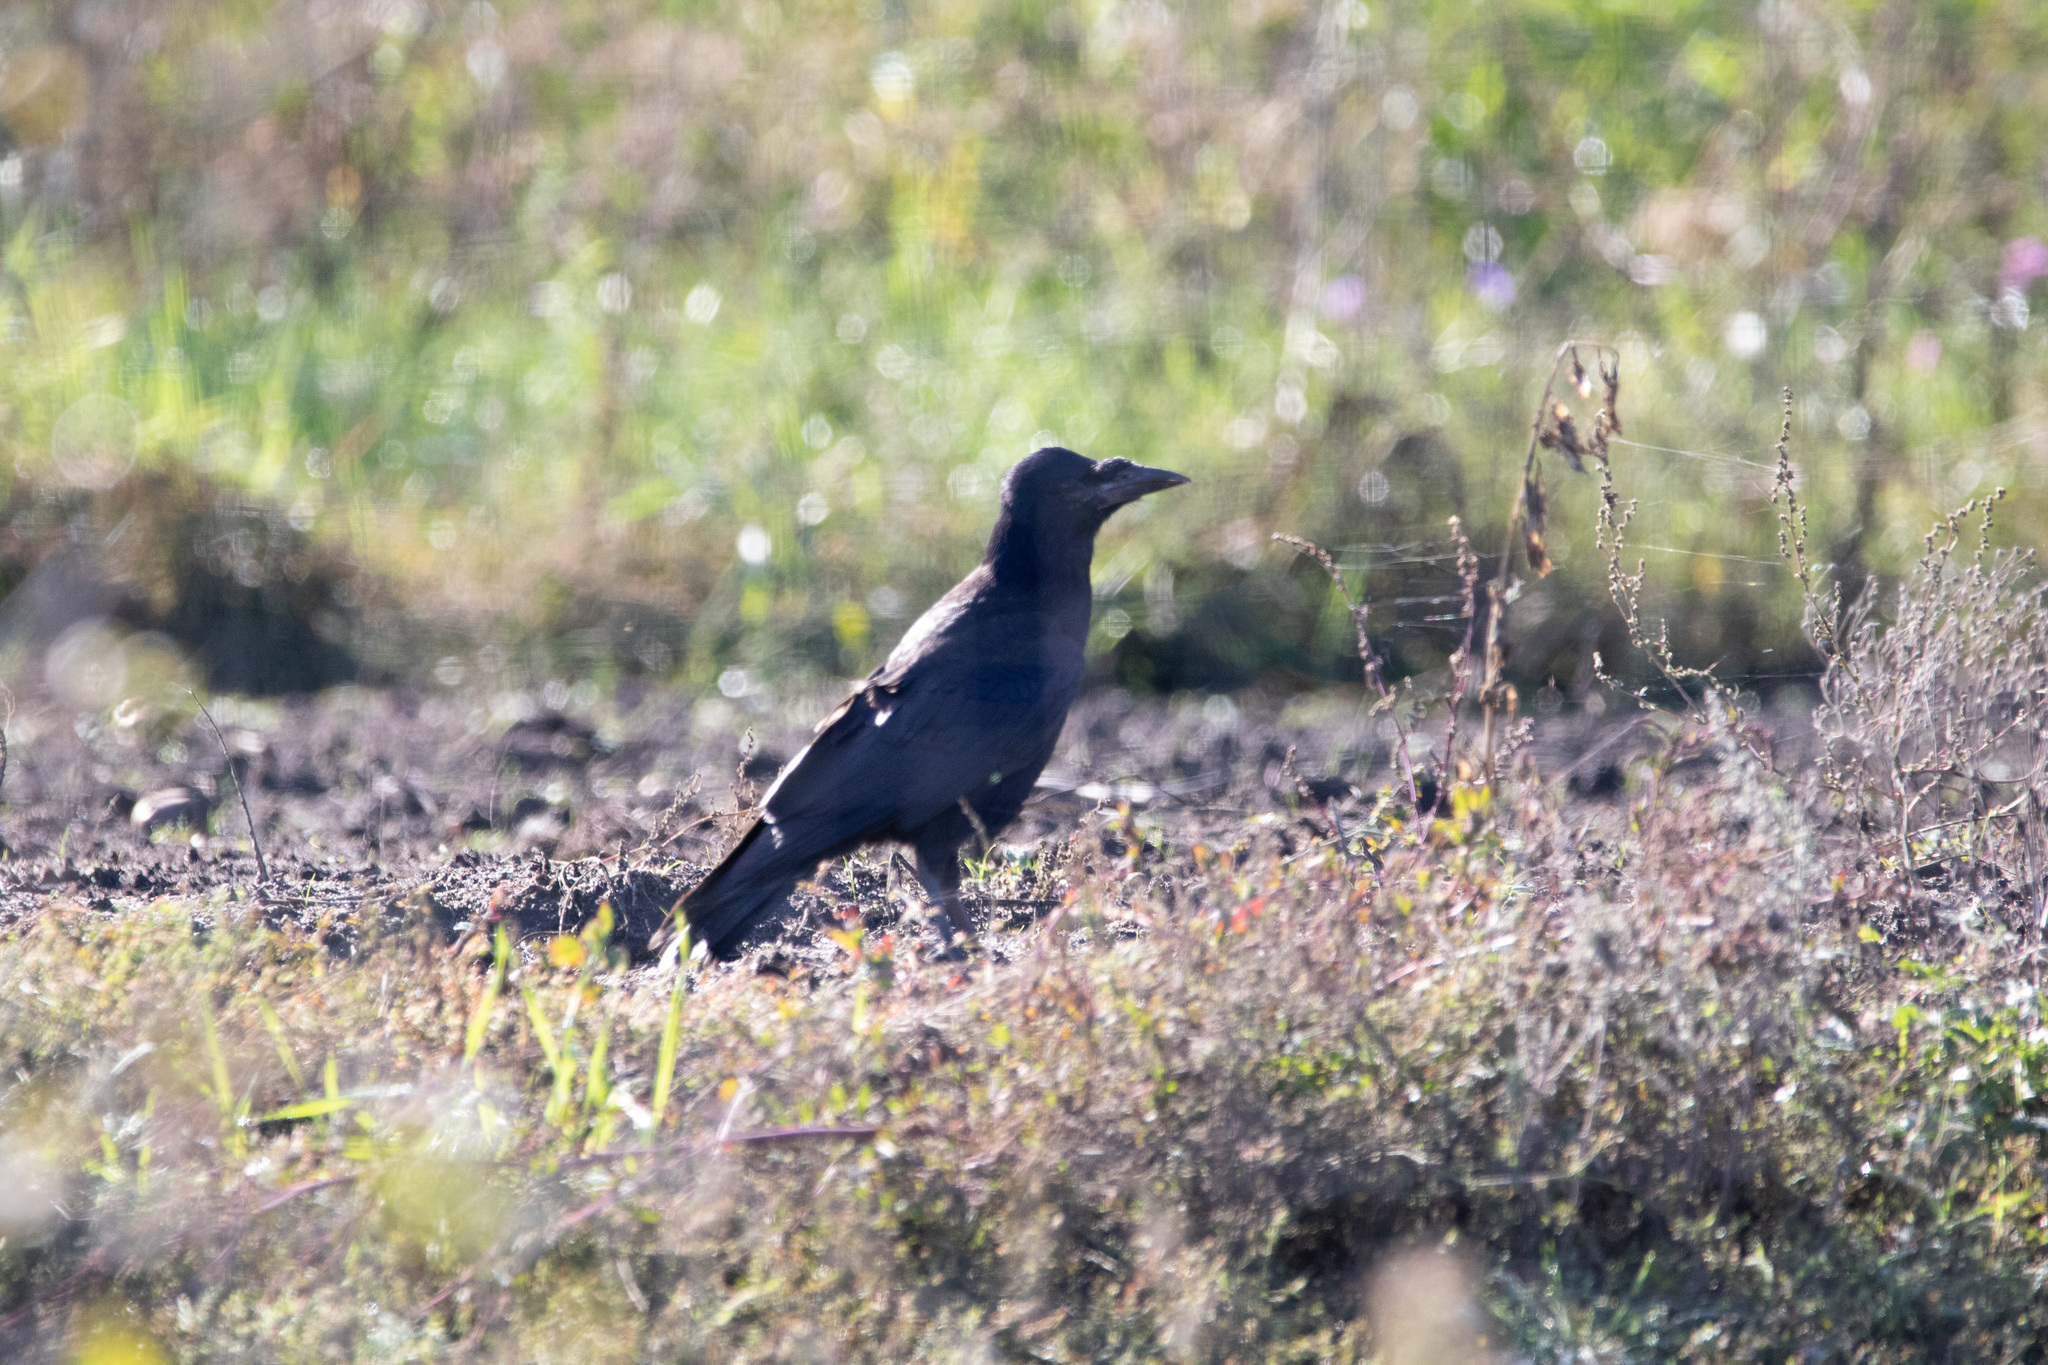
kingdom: Animalia
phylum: Chordata
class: Aves
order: Passeriformes
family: Corvidae
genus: Corvus
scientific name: Corvus frugilegus
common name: Rook
